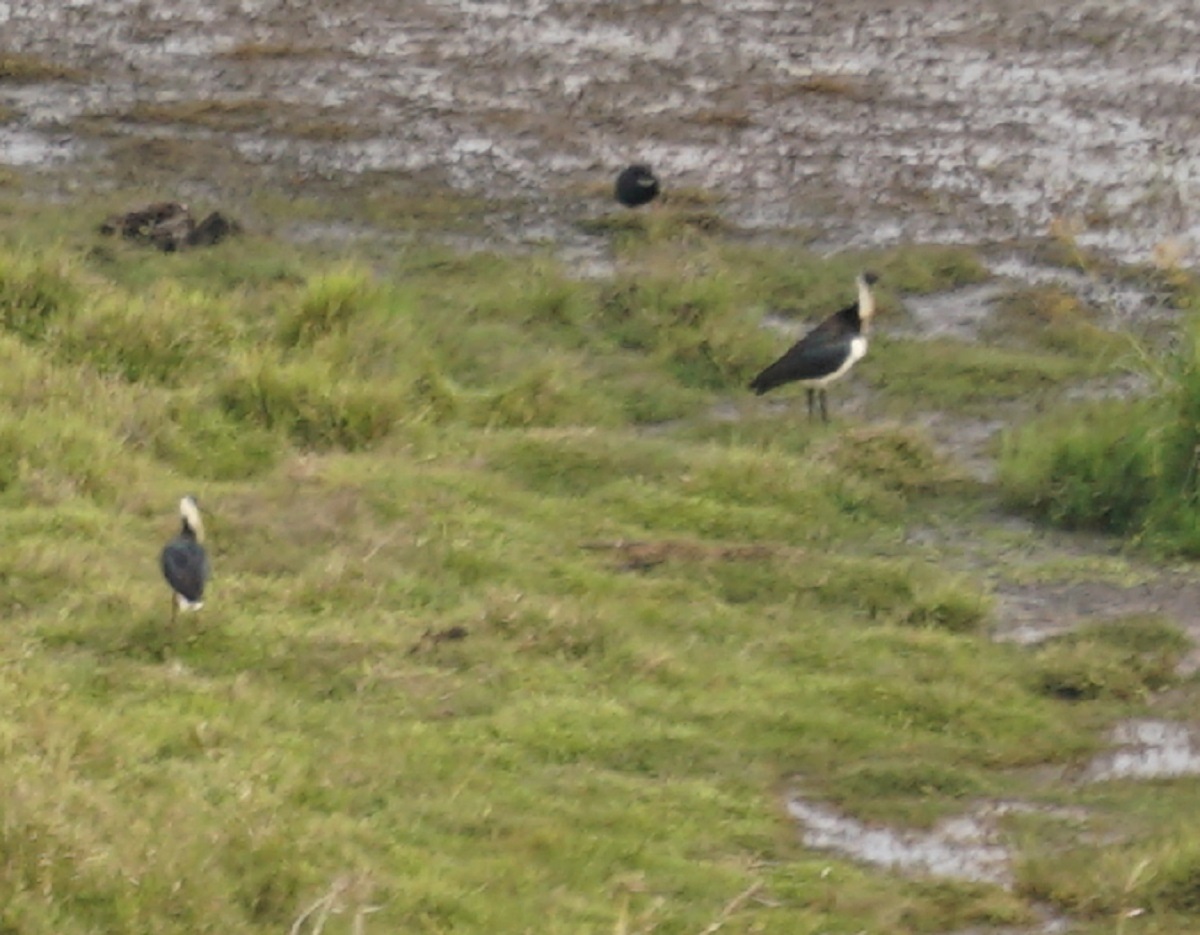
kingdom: Animalia
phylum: Chordata
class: Aves
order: Pelecaniformes
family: Threskiornithidae
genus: Threskiornis
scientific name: Threskiornis spinicollis
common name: Straw-necked ibis
